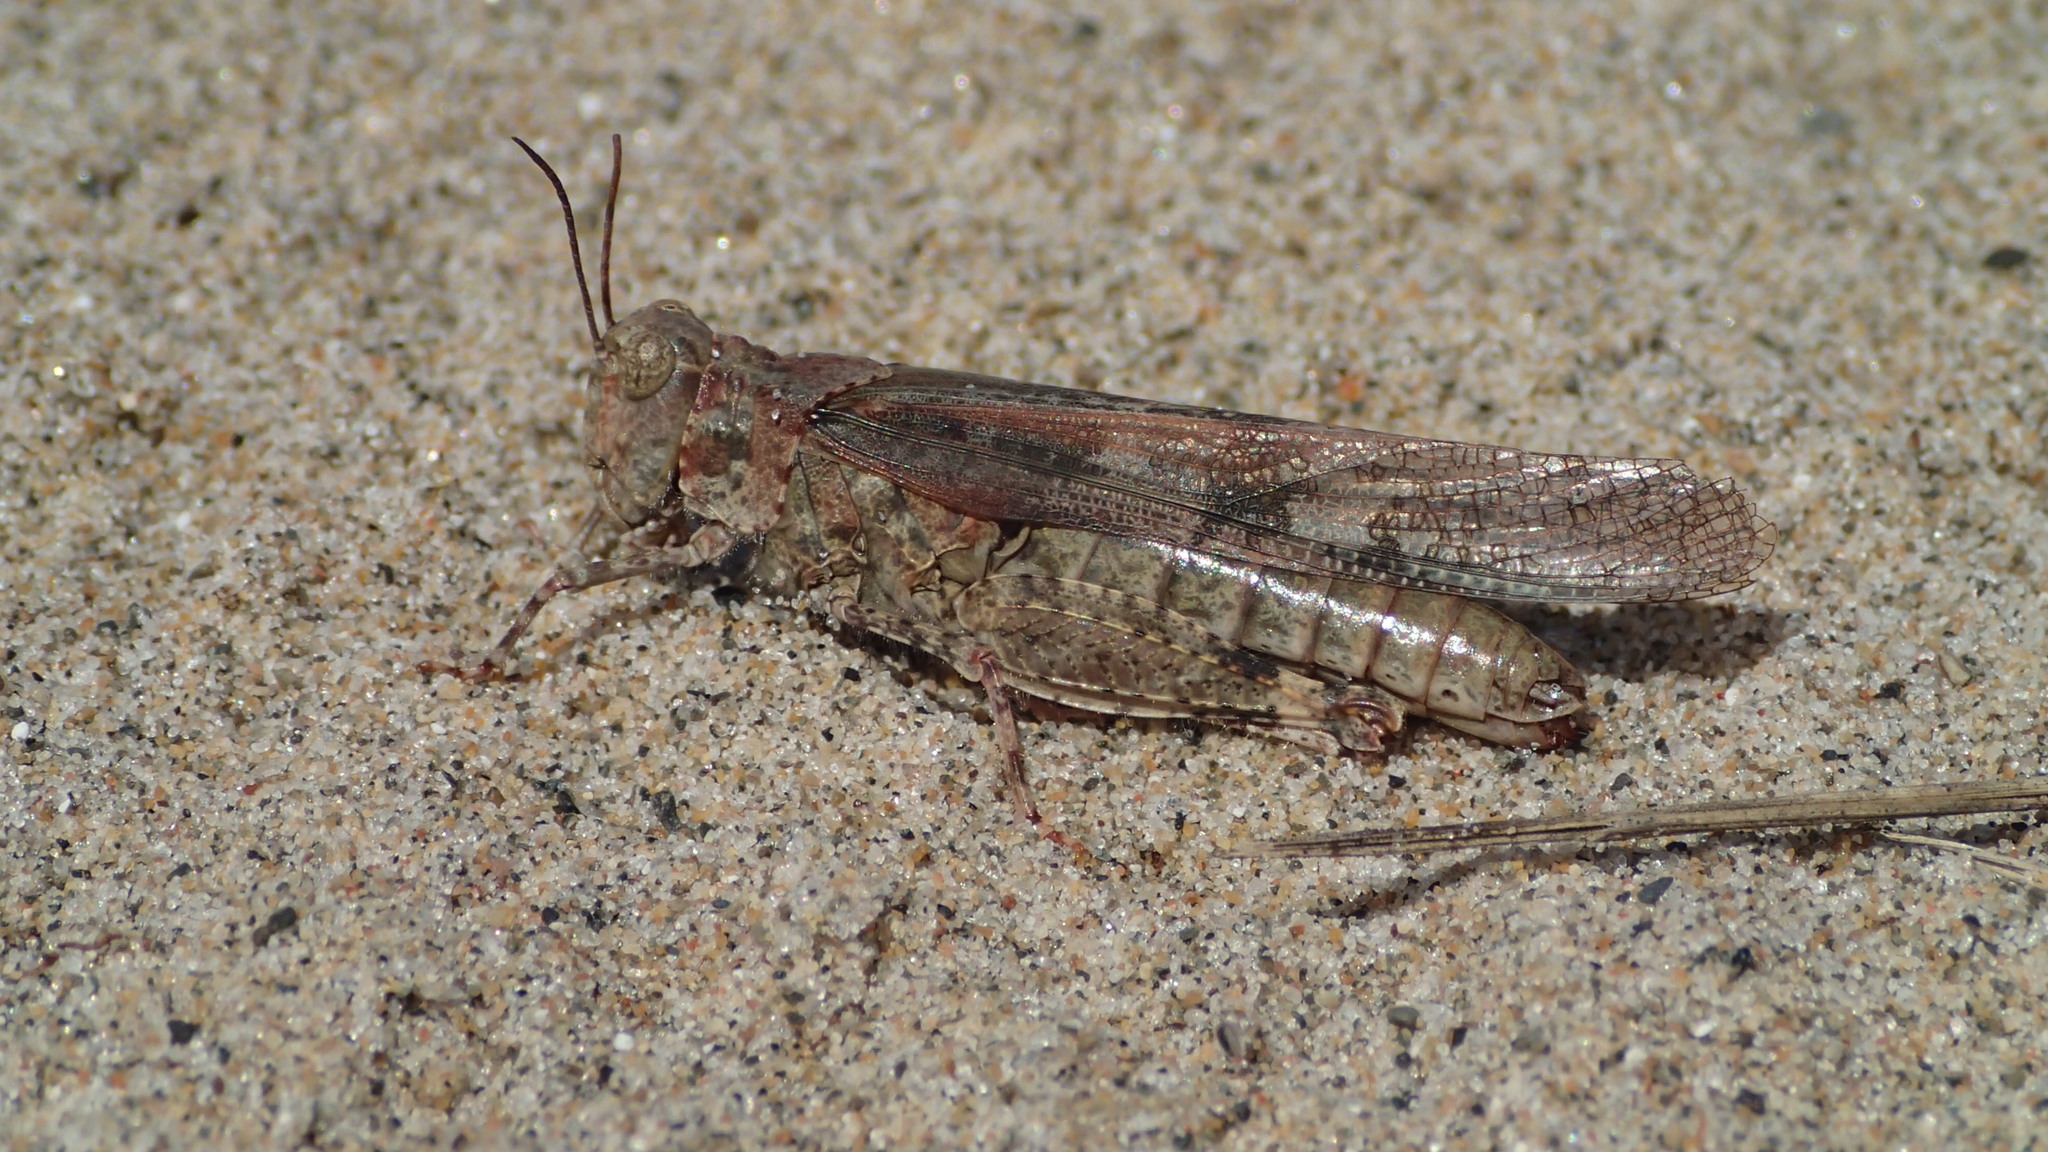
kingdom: Animalia
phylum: Arthropoda
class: Insecta
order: Orthoptera
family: Acrididae
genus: Trimerotropis
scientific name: Trimerotropis huroniana
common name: Lake huron locust
